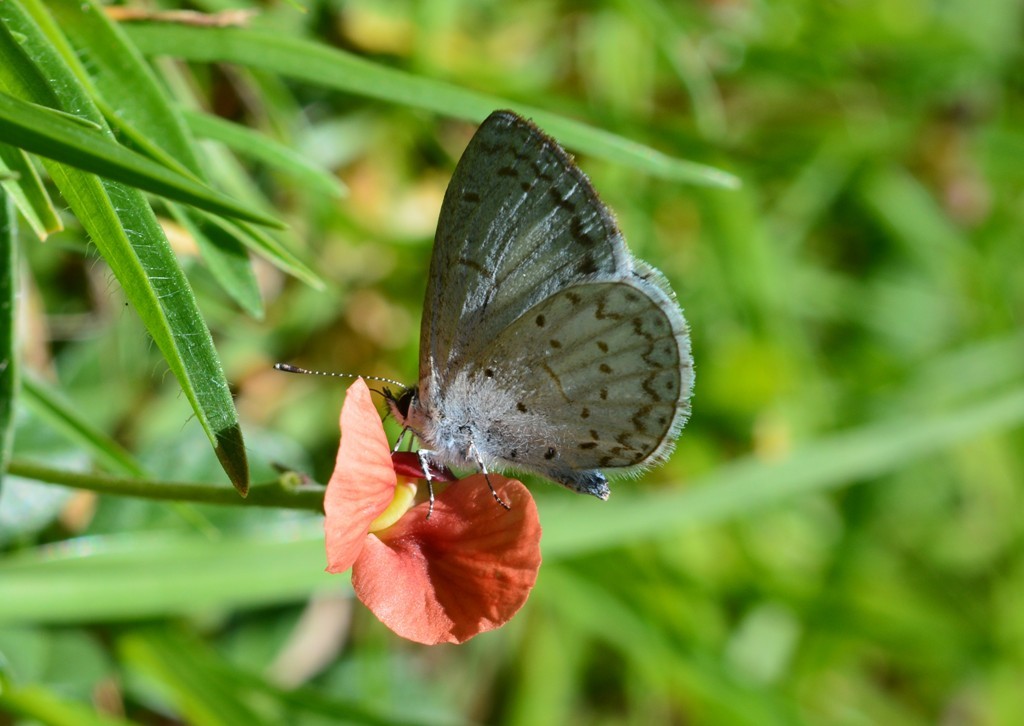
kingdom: Animalia
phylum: Arthropoda
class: Insecta
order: Lepidoptera
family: Lycaenidae
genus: Lycaena
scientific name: Lycaena cyna
